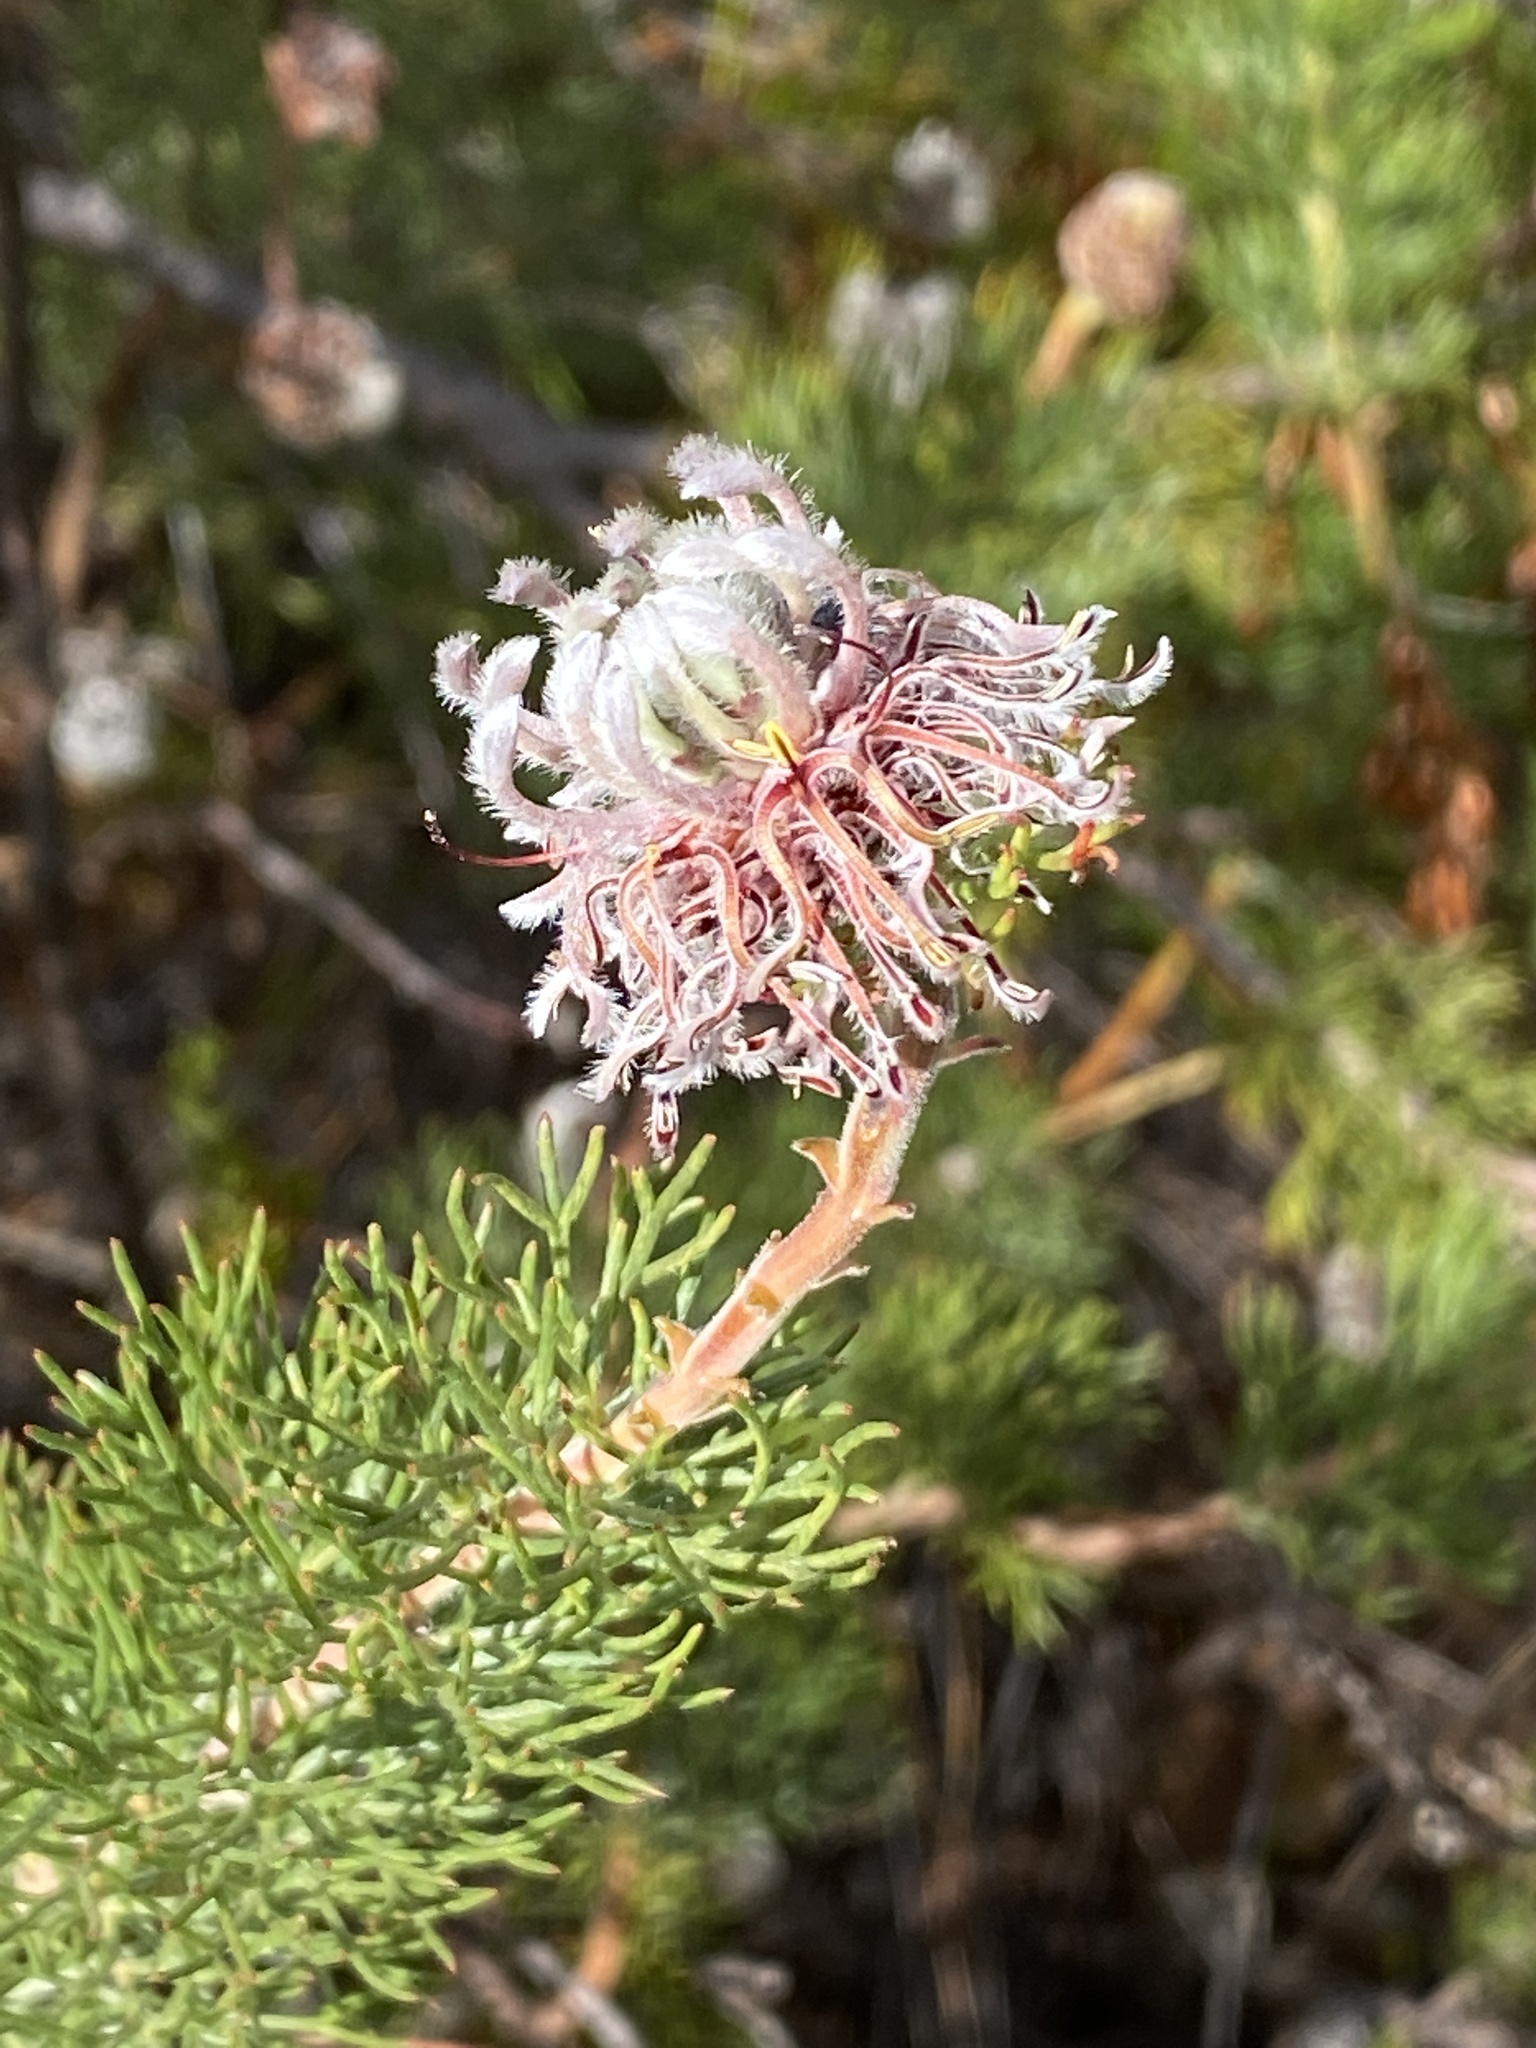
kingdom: Plantae
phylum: Tracheophyta
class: Magnoliopsida
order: Proteales
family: Proteaceae
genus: Serruria
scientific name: Serruria
